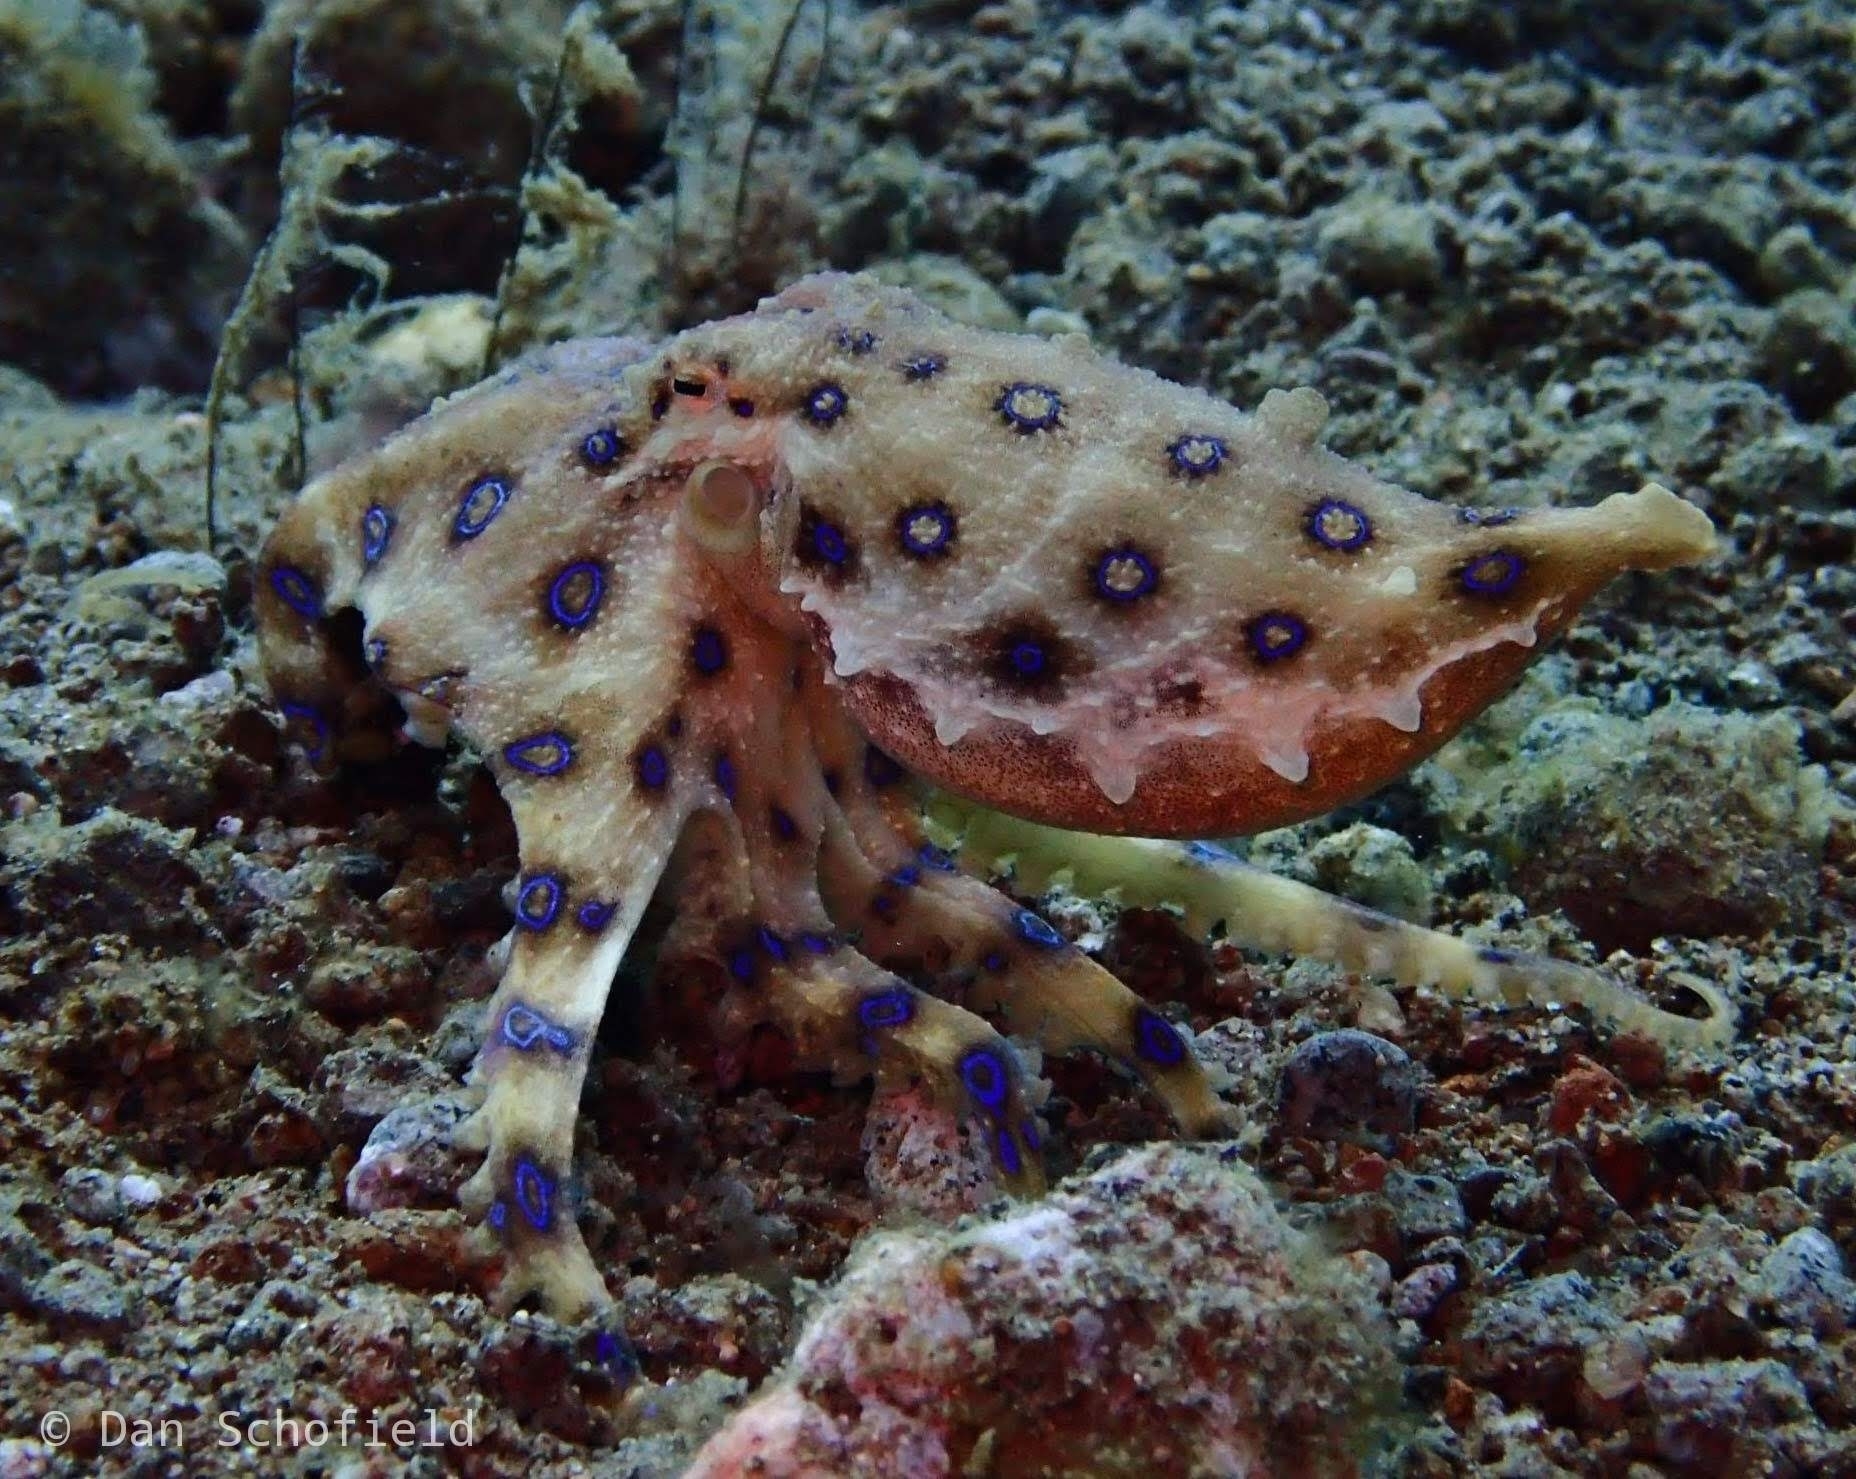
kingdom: Animalia
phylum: Mollusca
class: Cephalopoda
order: Octopoda
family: Octopodidae
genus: Hapalochlaena
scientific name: Hapalochlaena lunulata
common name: Greater blue-ringed octopus
